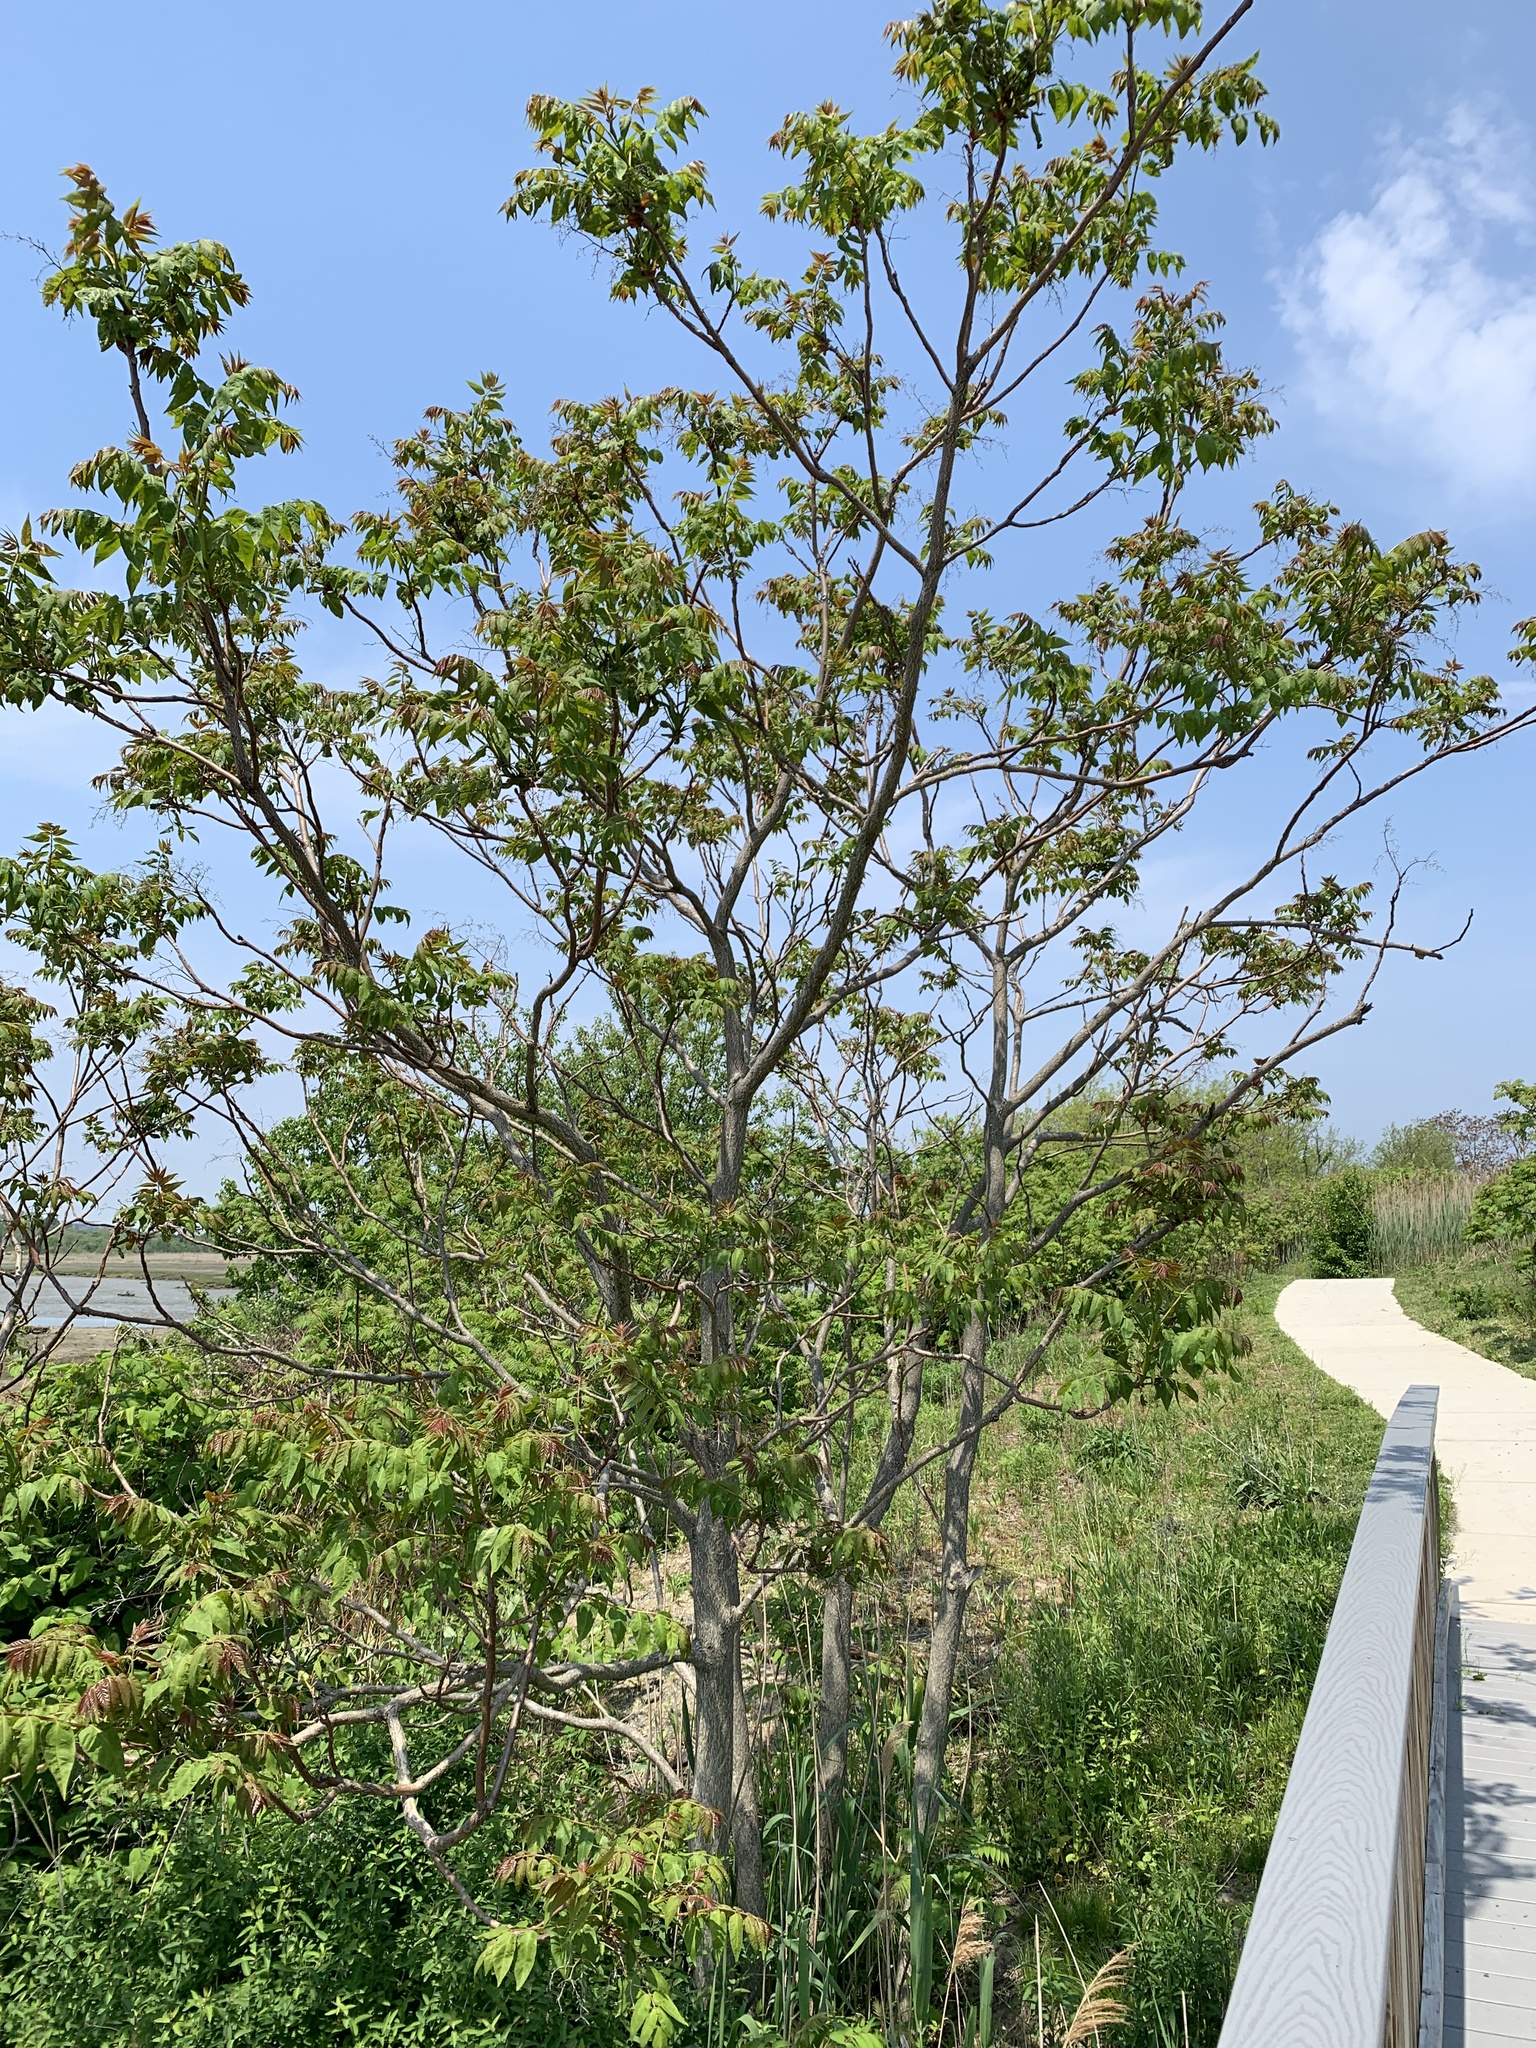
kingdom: Plantae
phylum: Tracheophyta
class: Magnoliopsida
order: Sapindales
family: Simaroubaceae
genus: Ailanthus
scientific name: Ailanthus altissima
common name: Tree-of-heaven
